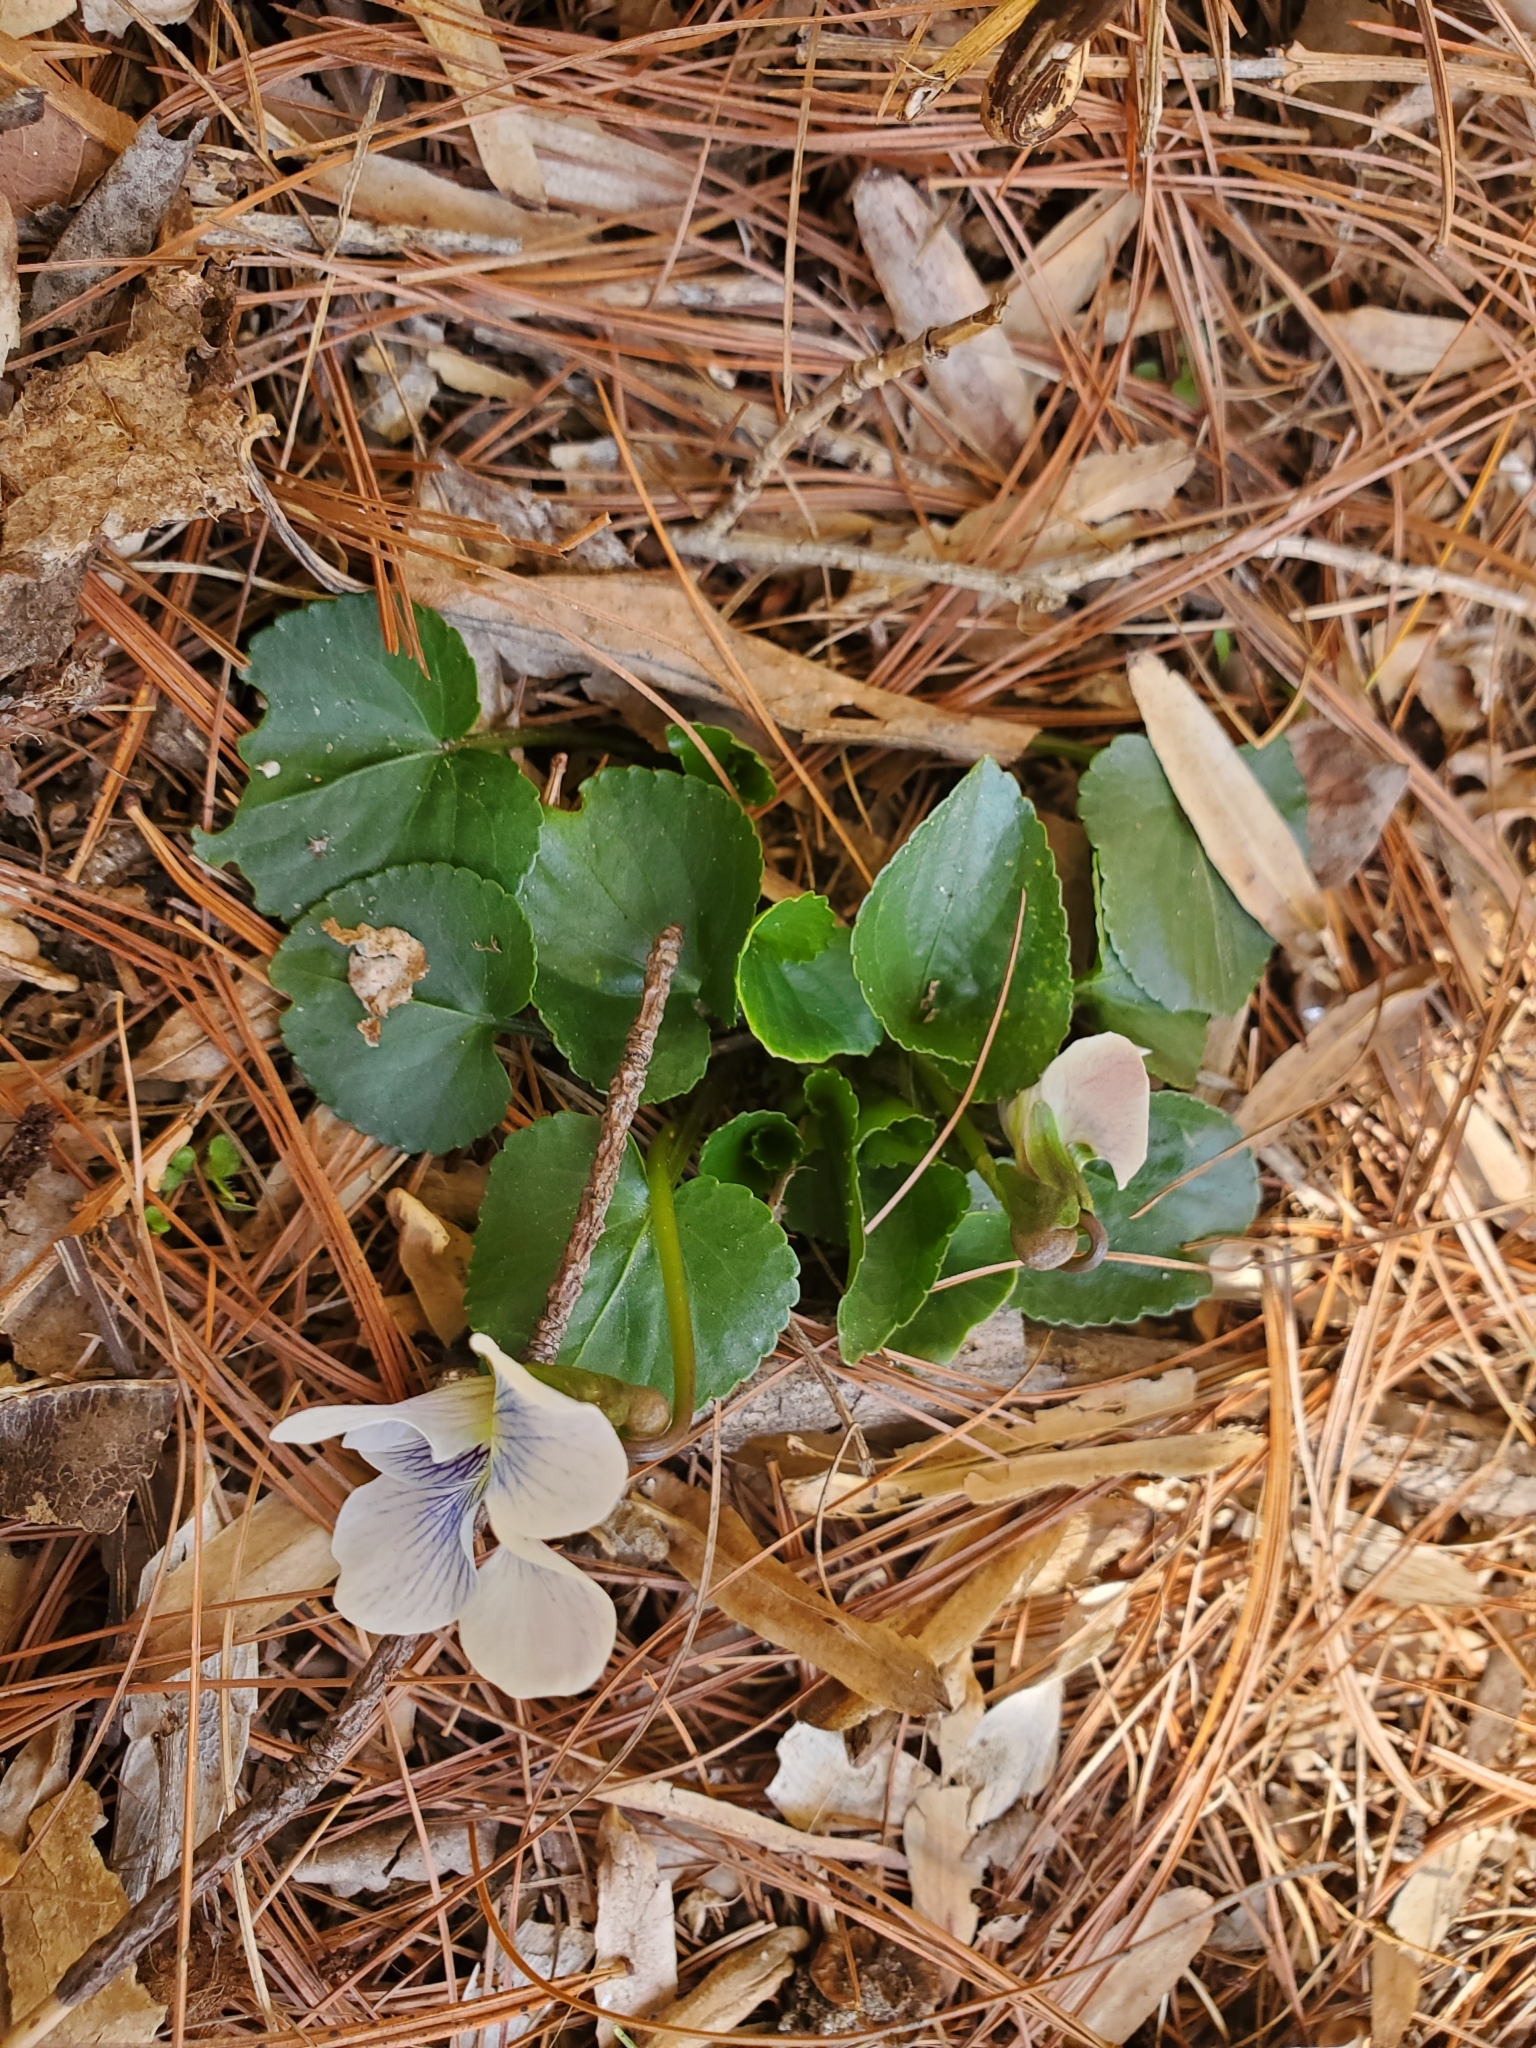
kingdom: Plantae
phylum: Tracheophyta
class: Magnoliopsida
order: Malpighiales
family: Violaceae
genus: Viola
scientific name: Viola sororia
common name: Dooryard violet
